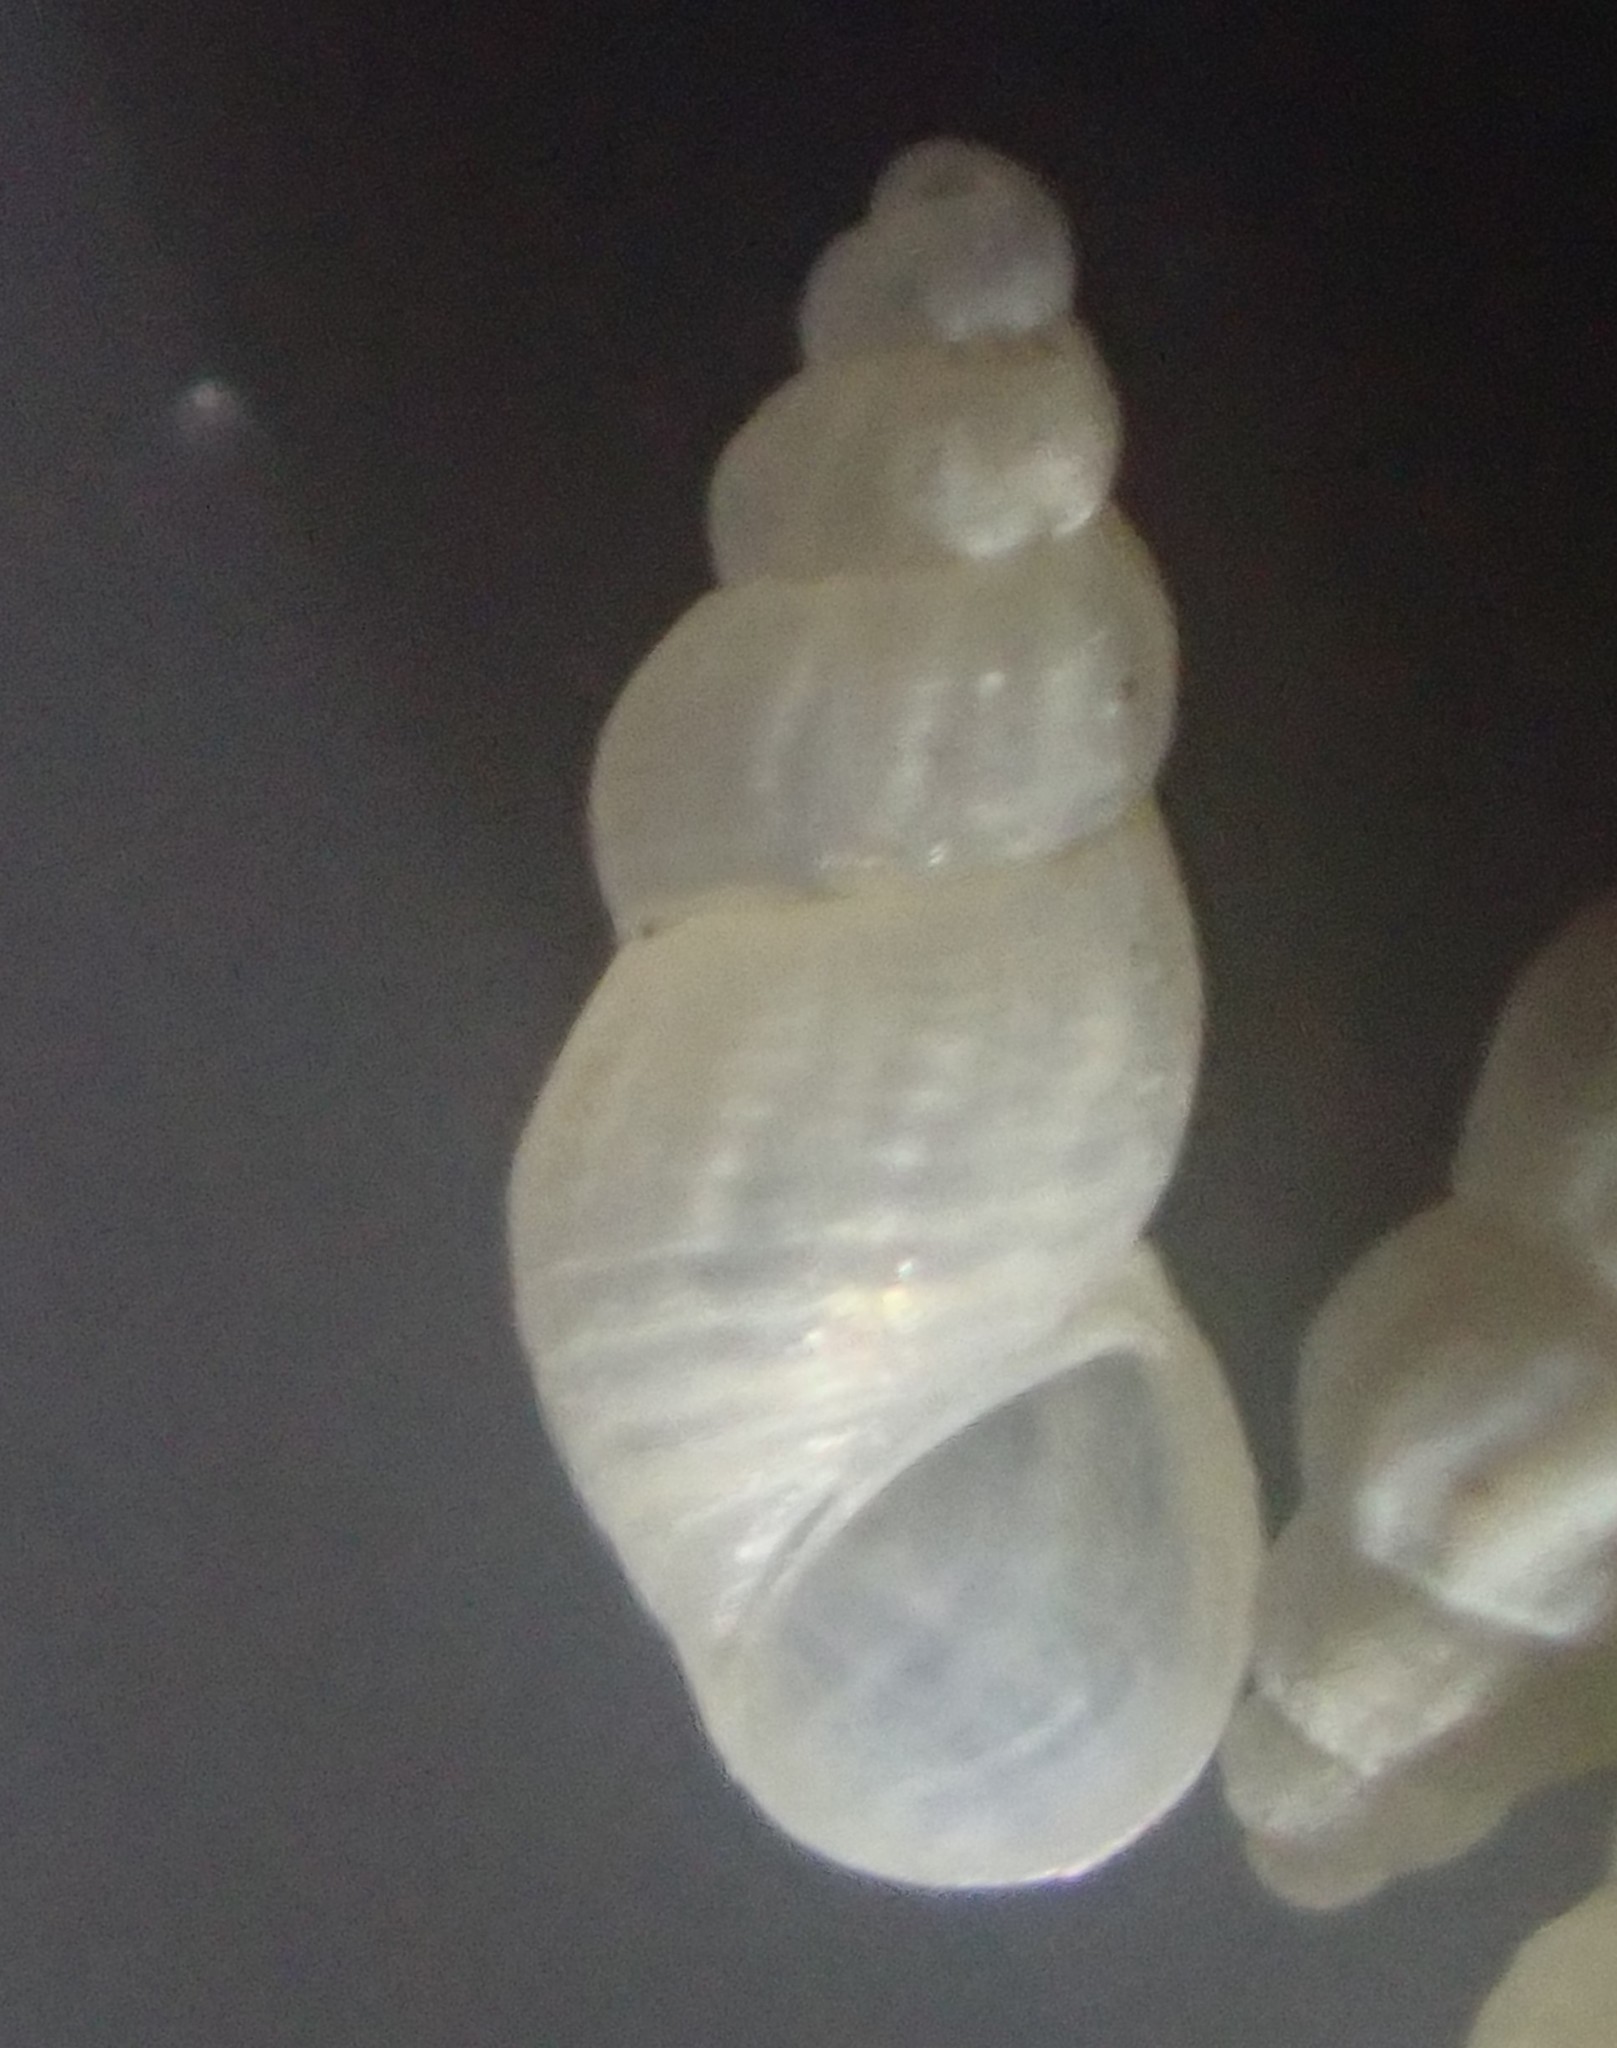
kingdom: Animalia
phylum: Mollusca
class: Gastropoda
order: Littorinimorpha
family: Rissoidae
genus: Subonoba
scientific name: Subonoba candidissima
